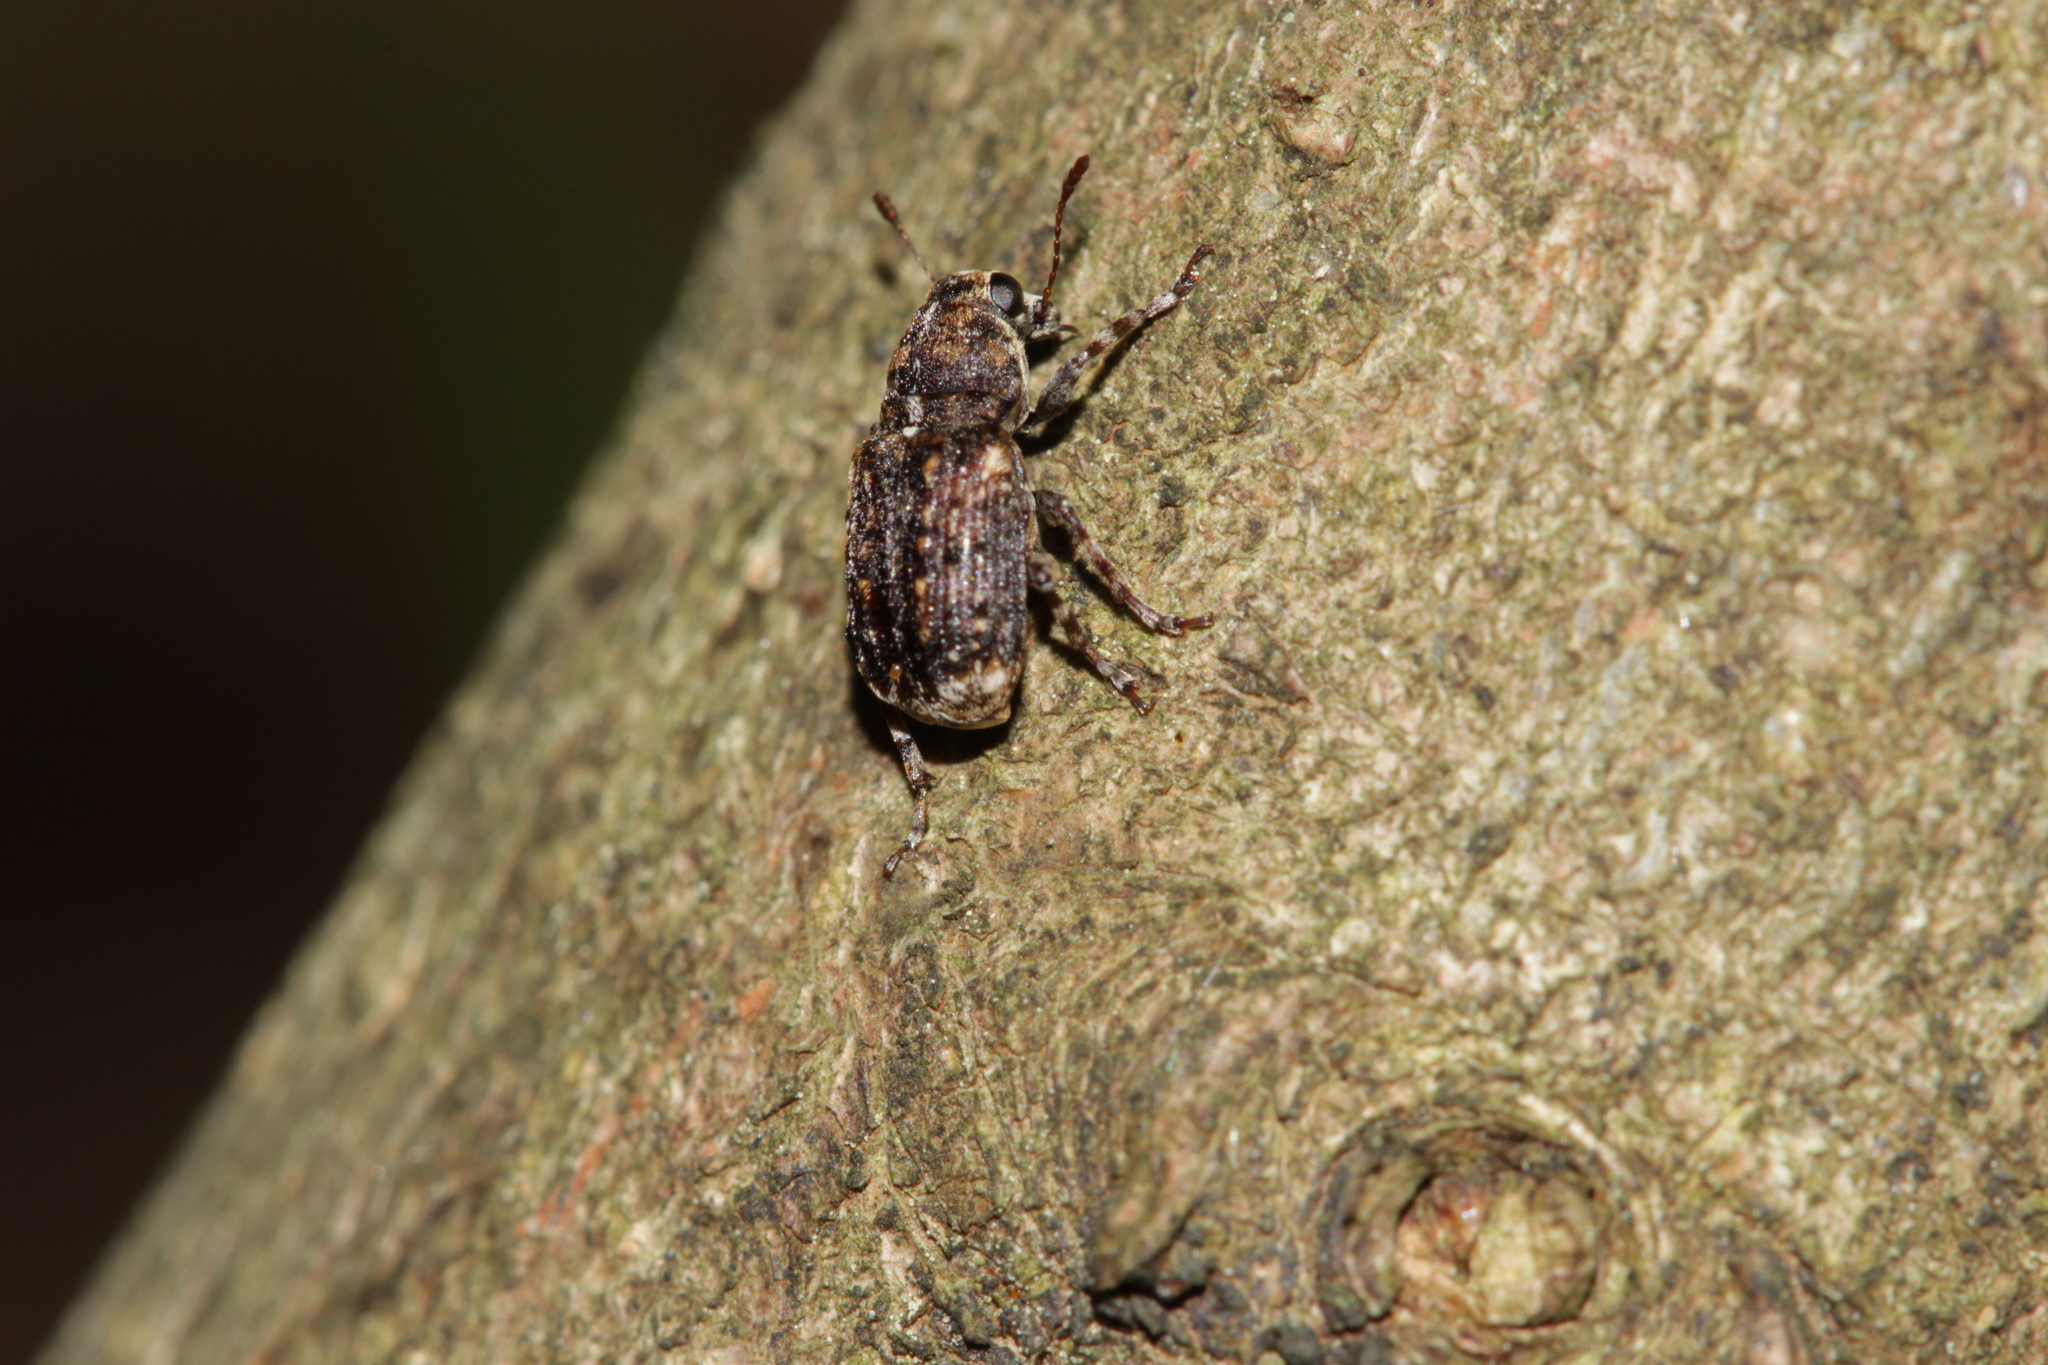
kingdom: Animalia
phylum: Arthropoda
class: Insecta
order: Coleoptera
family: Anthribidae
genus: Dissoleucas
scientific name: Dissoleucas niveirostris
